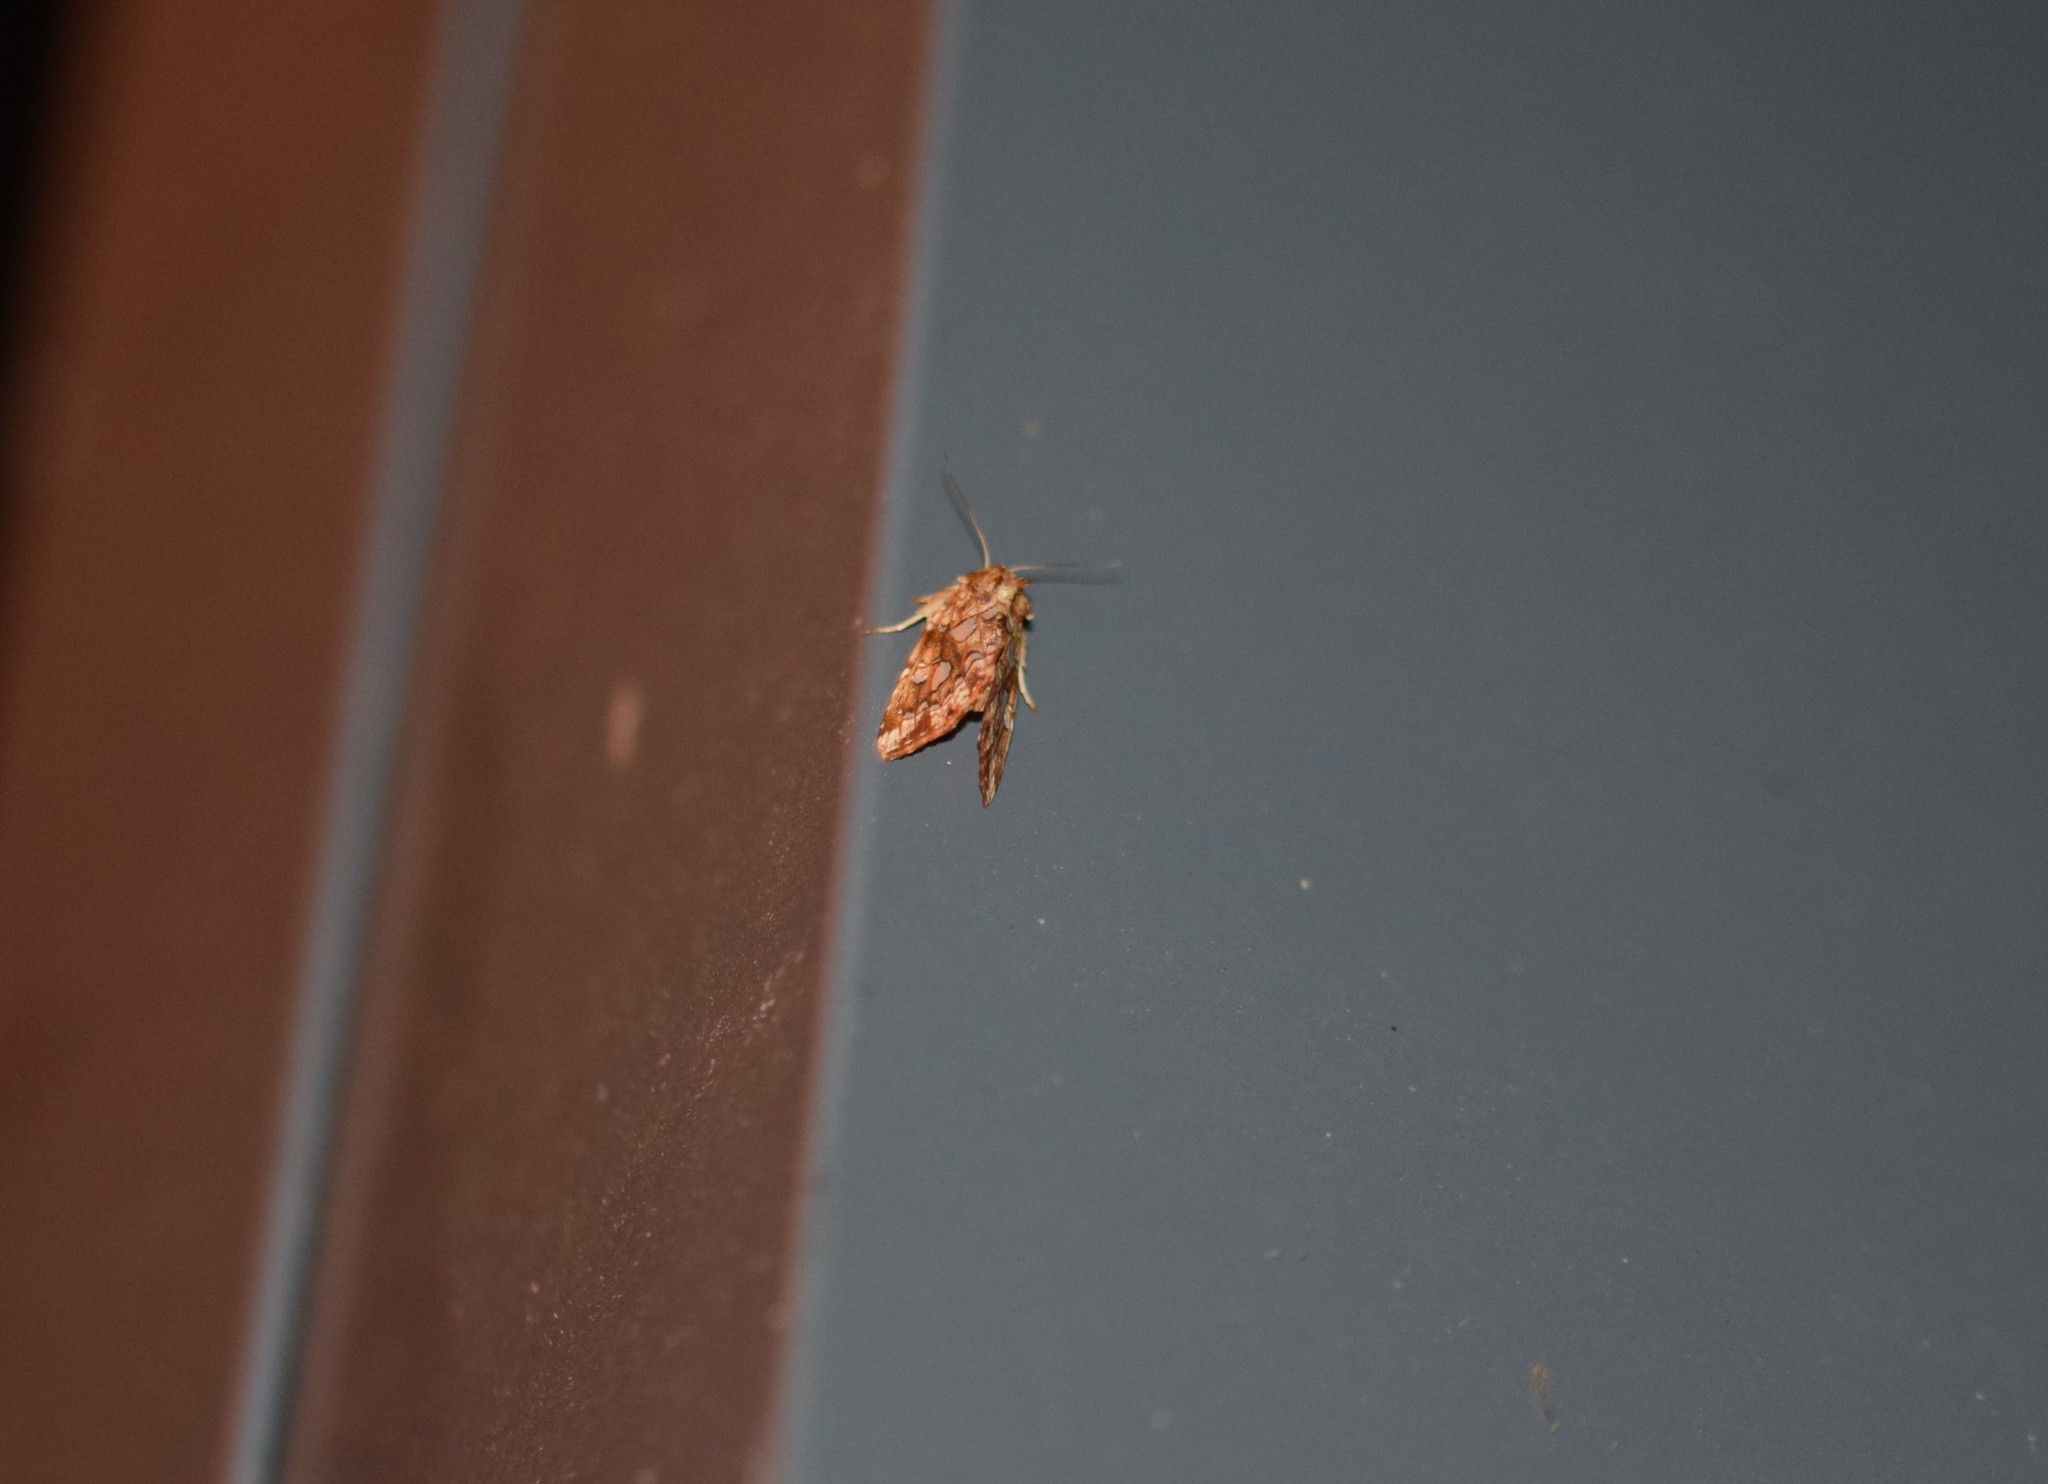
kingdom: Animalia
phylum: Arthropoda
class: Insecta
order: Lepidoptera
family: Noctuidae
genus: Callopistria
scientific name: Callopistria cordata
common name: Silver-spotted fern moth
